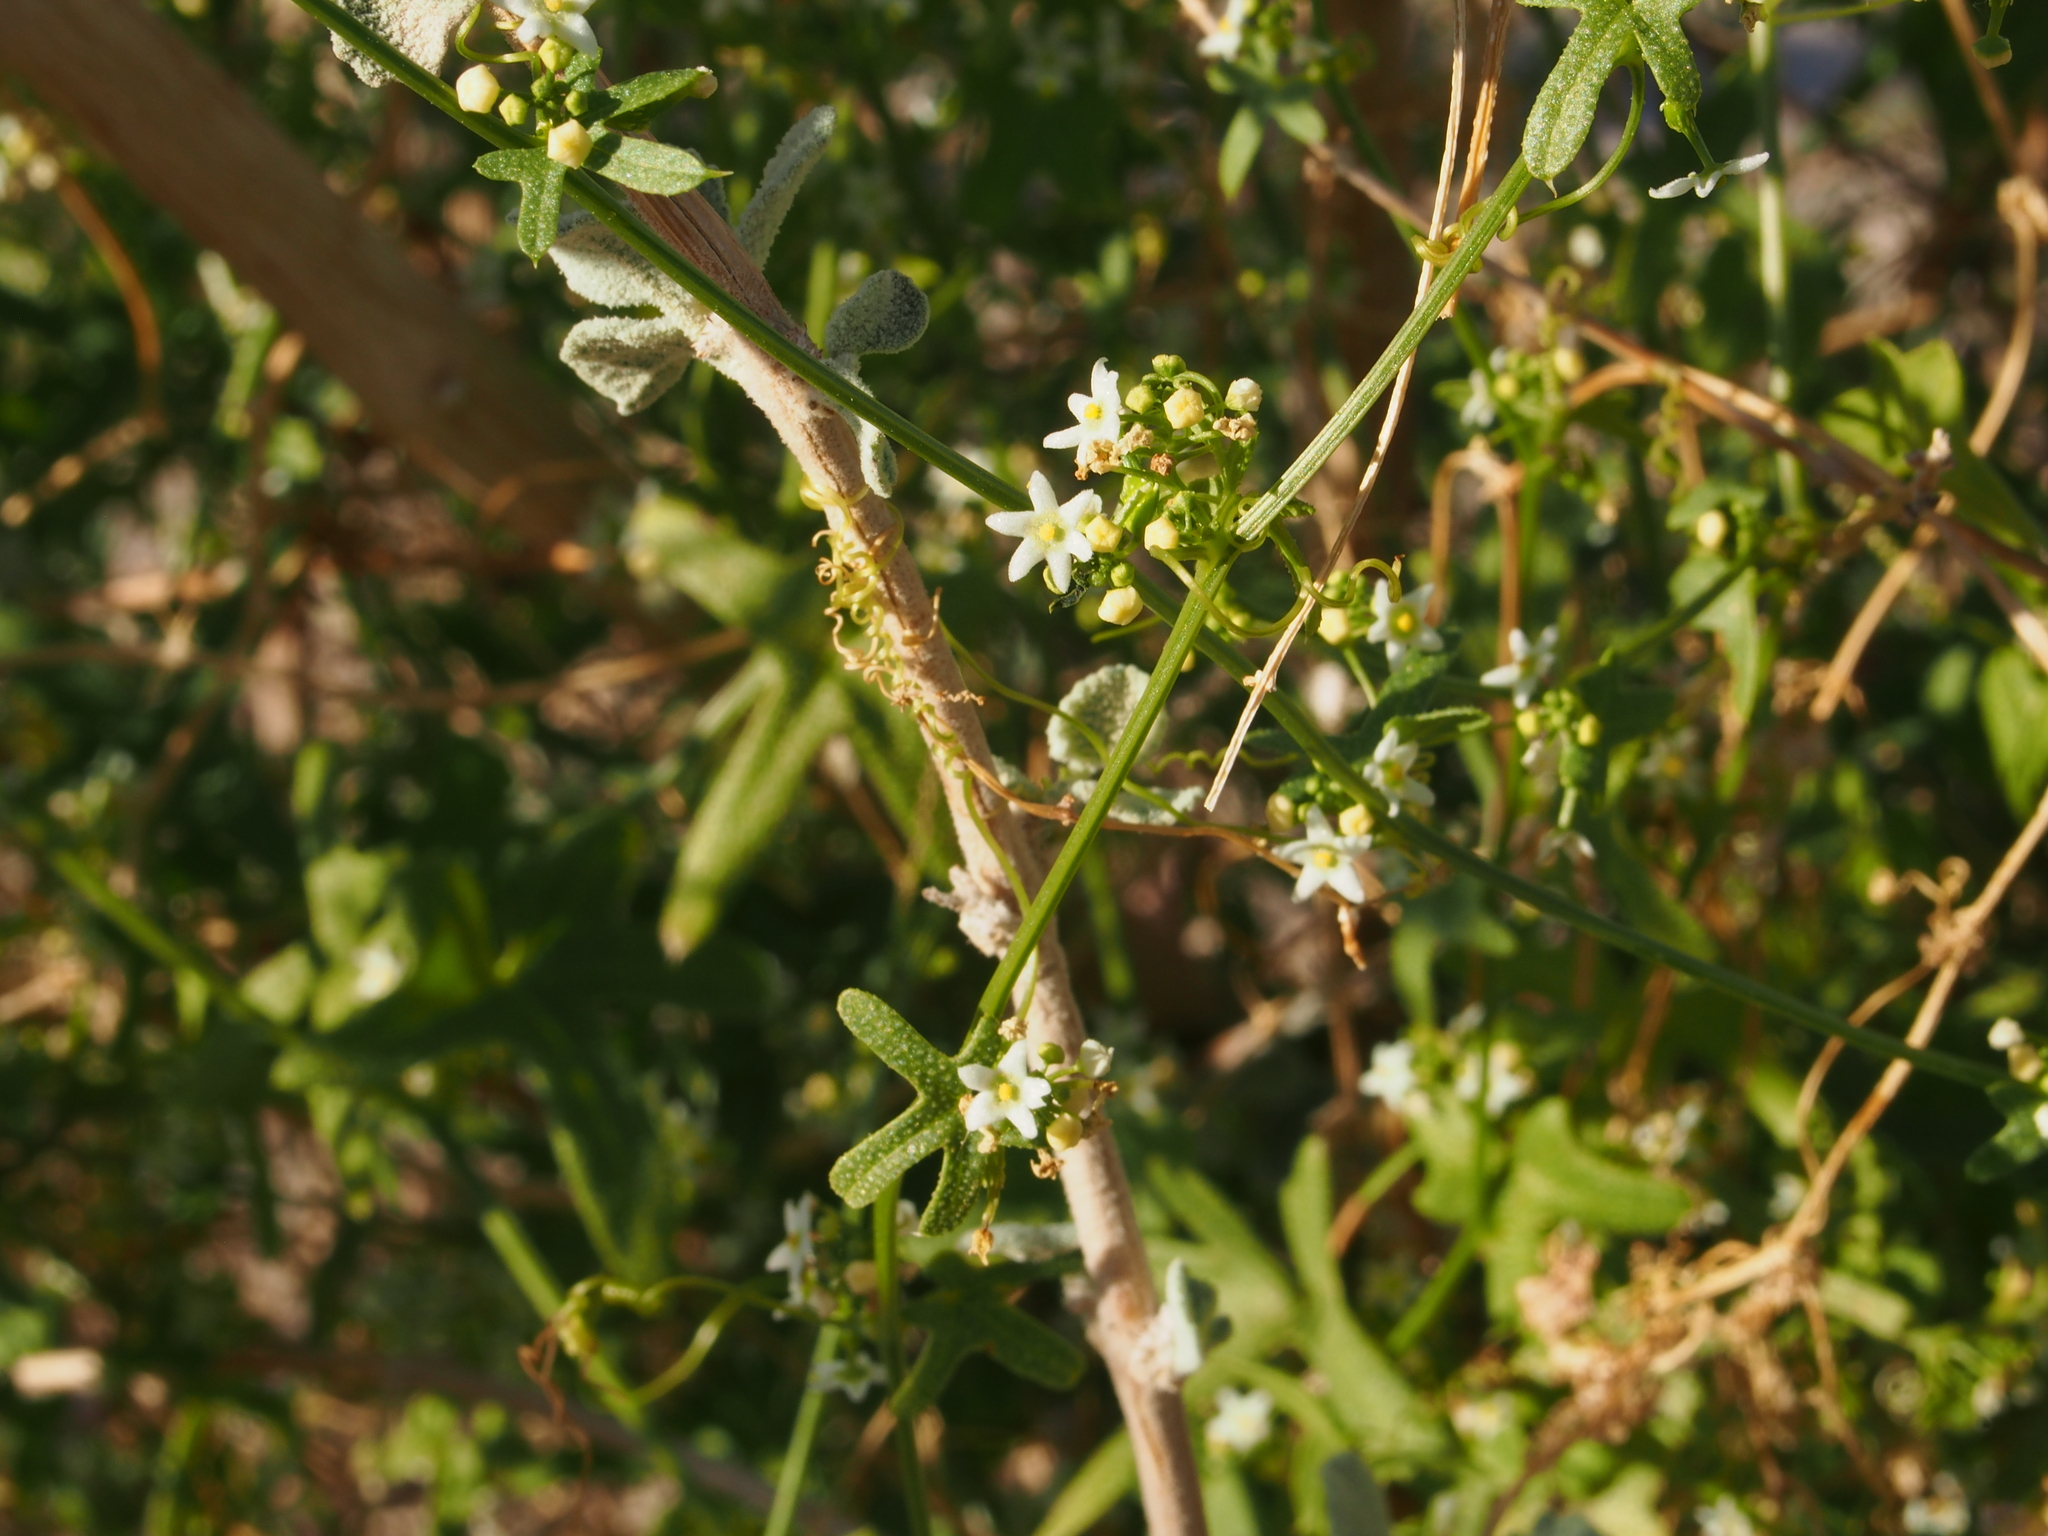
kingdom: Plantae
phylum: Tracheophyta
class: Magnoliopsida
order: Cucurbitales
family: Cucurbitaceae
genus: Echinopepon
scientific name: Echinopepon bigelovii
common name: Desert starvine
